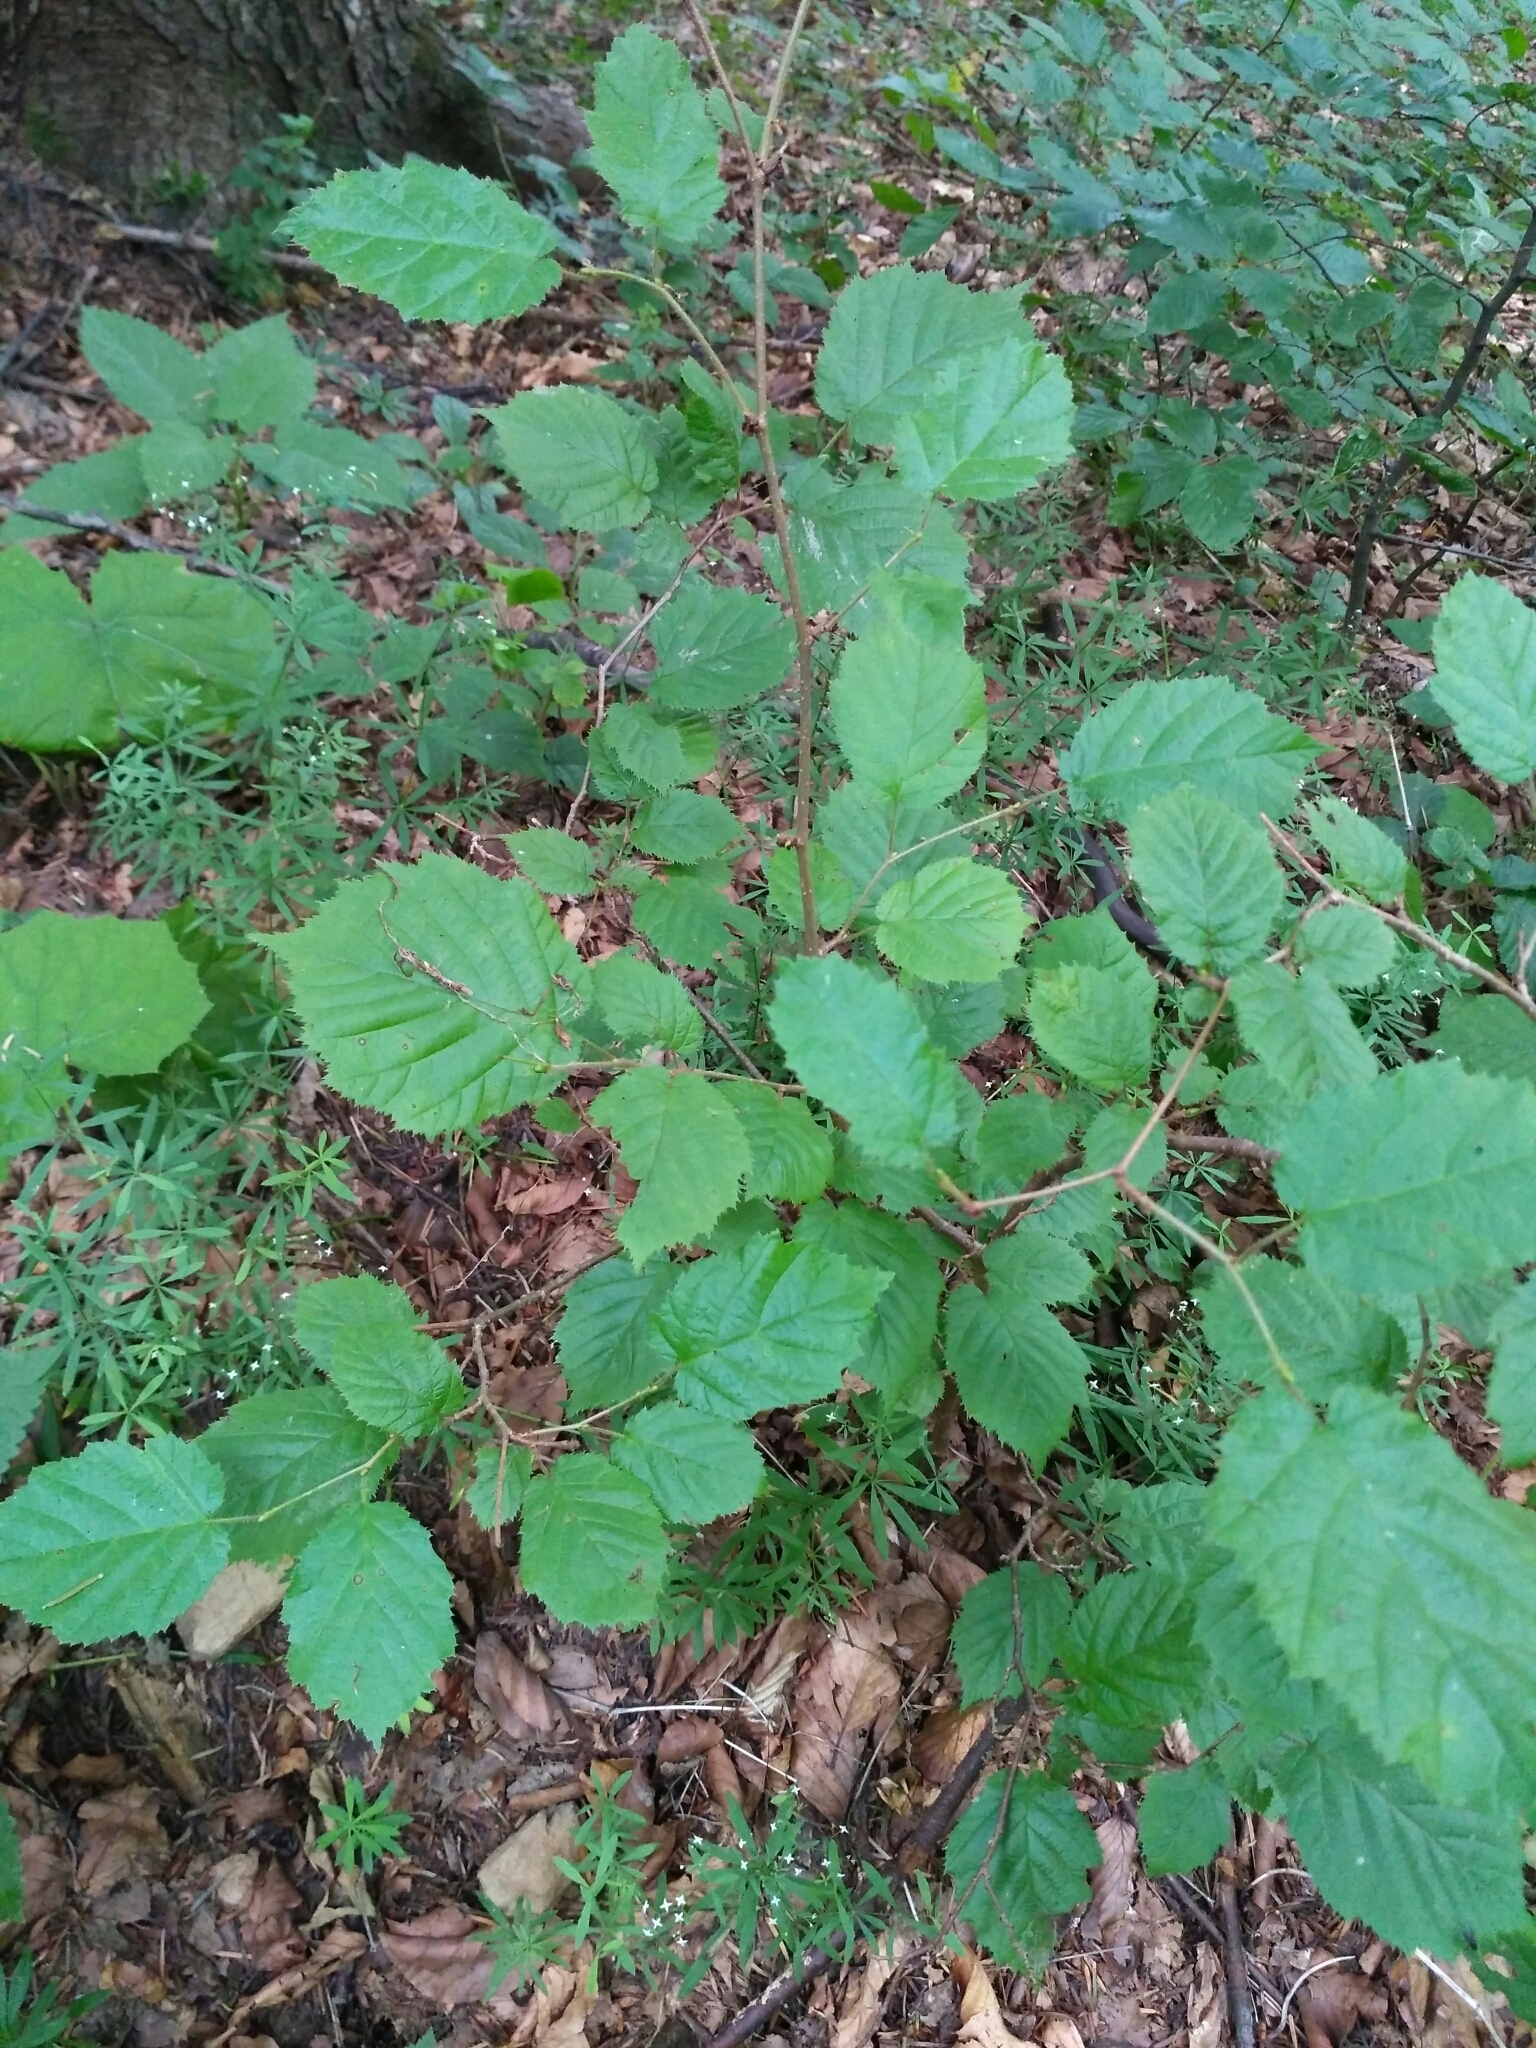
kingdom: Plantae
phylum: Tracheophyta
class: Magnoliopsida
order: Fagales
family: Betulaceae
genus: Corylus
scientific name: Corylus avellana
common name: European hazel
